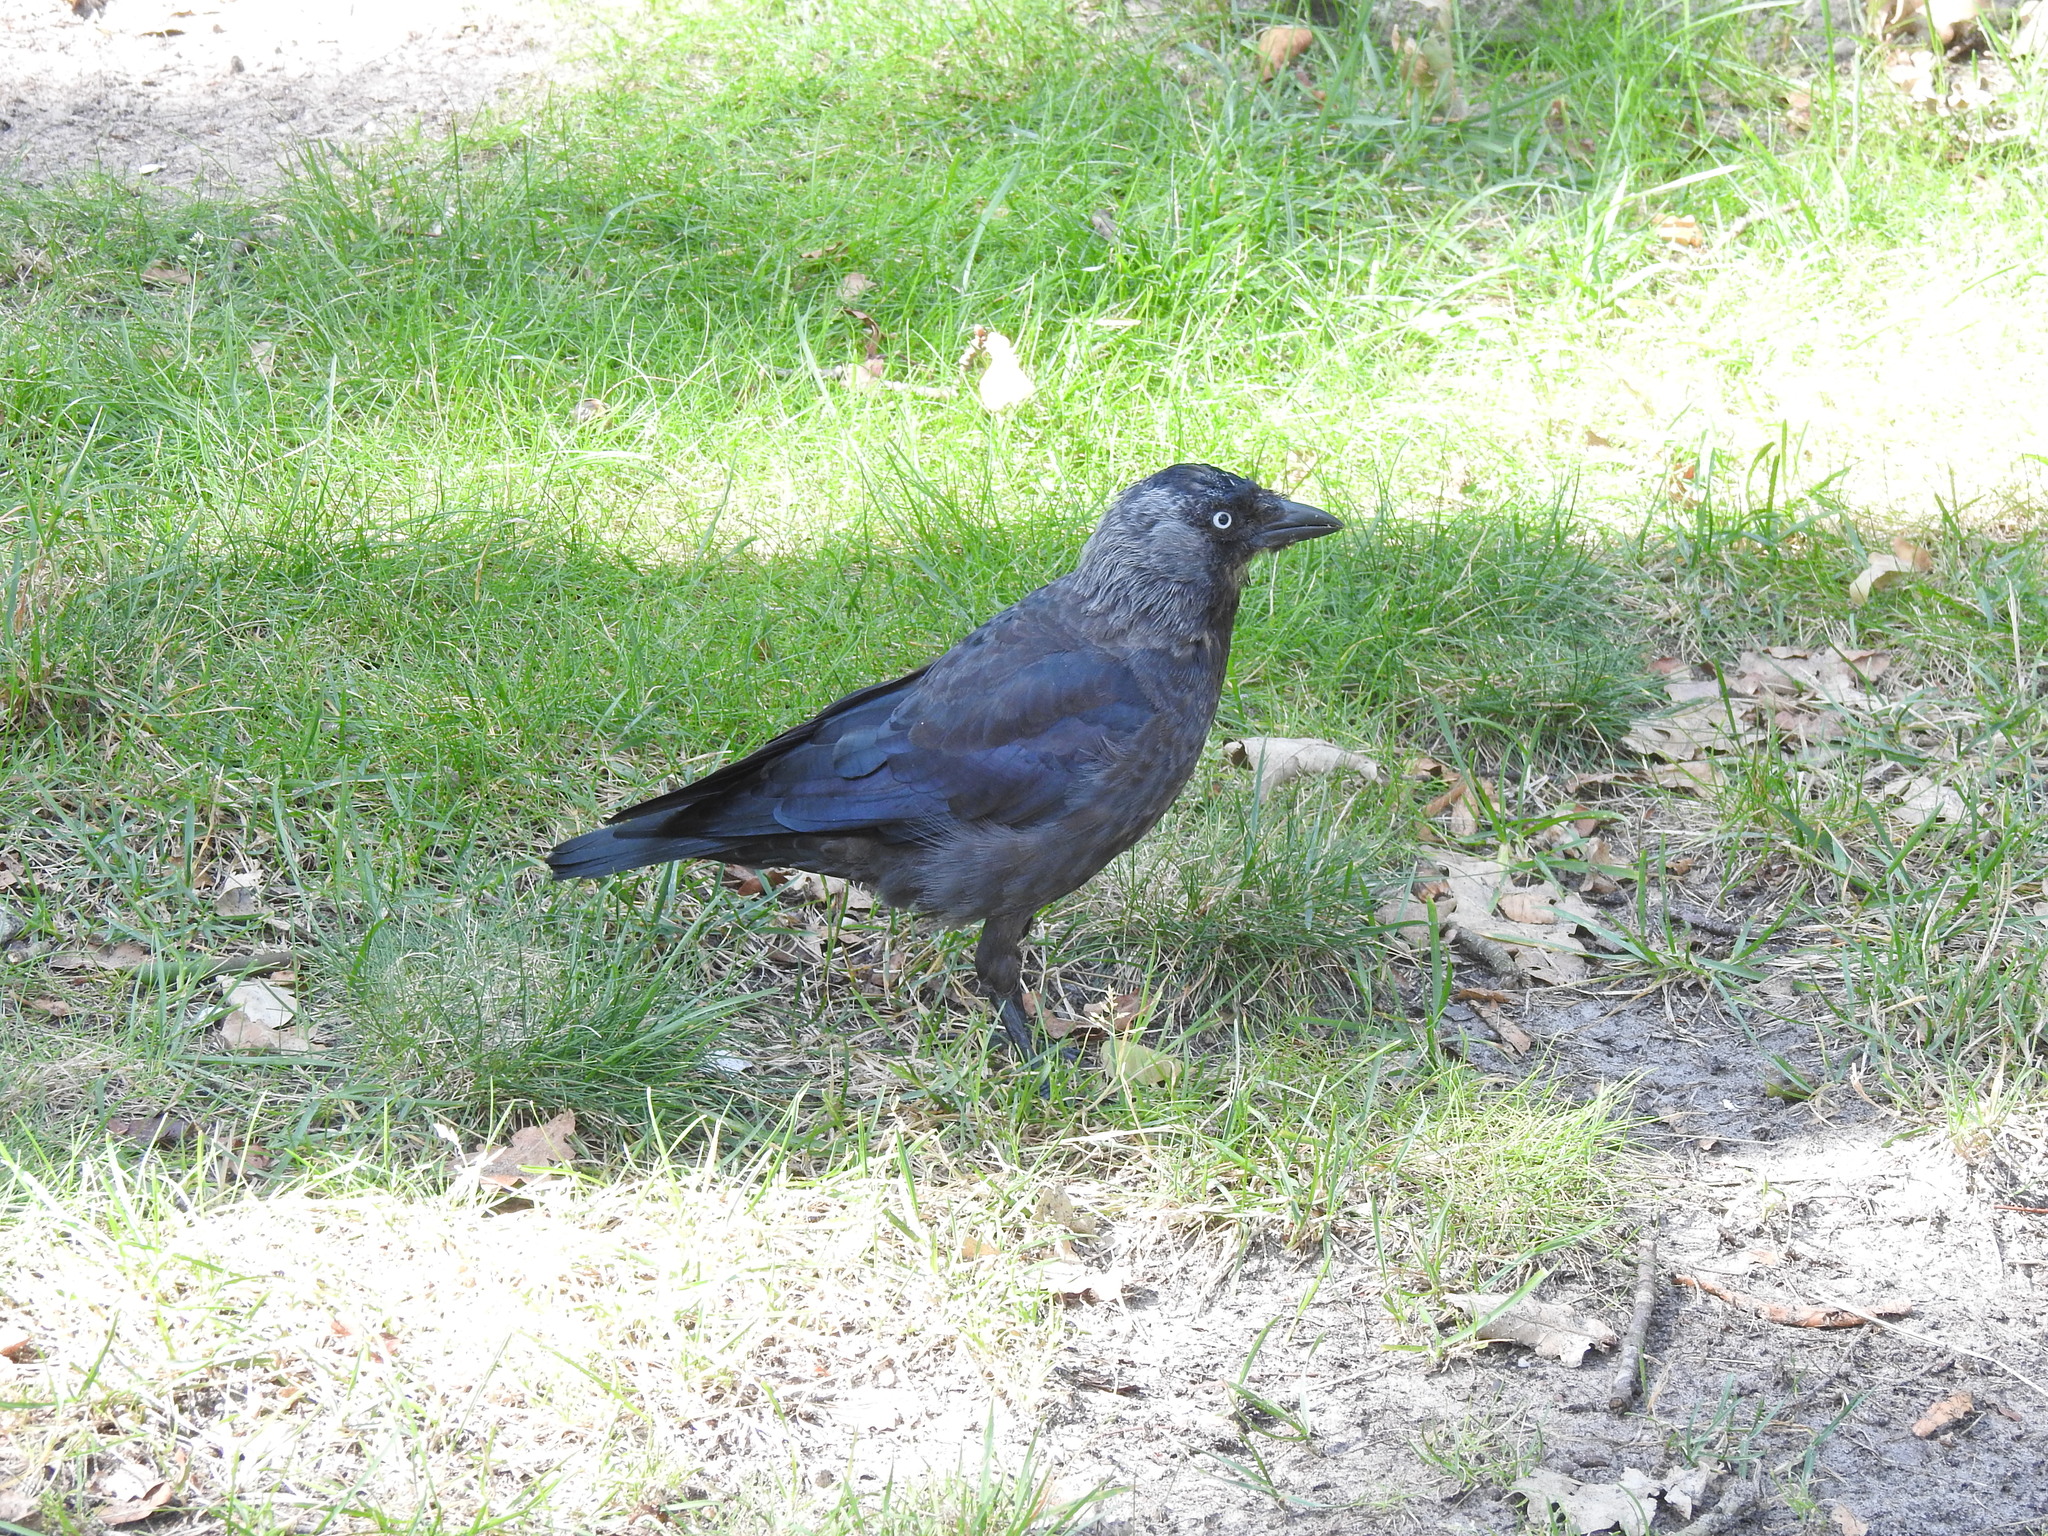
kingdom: Animalia
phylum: Chordata
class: Aves
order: Passeriformes
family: Corvidae
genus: Coloeus
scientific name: Coloeus monedula
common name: Western jackdaw
